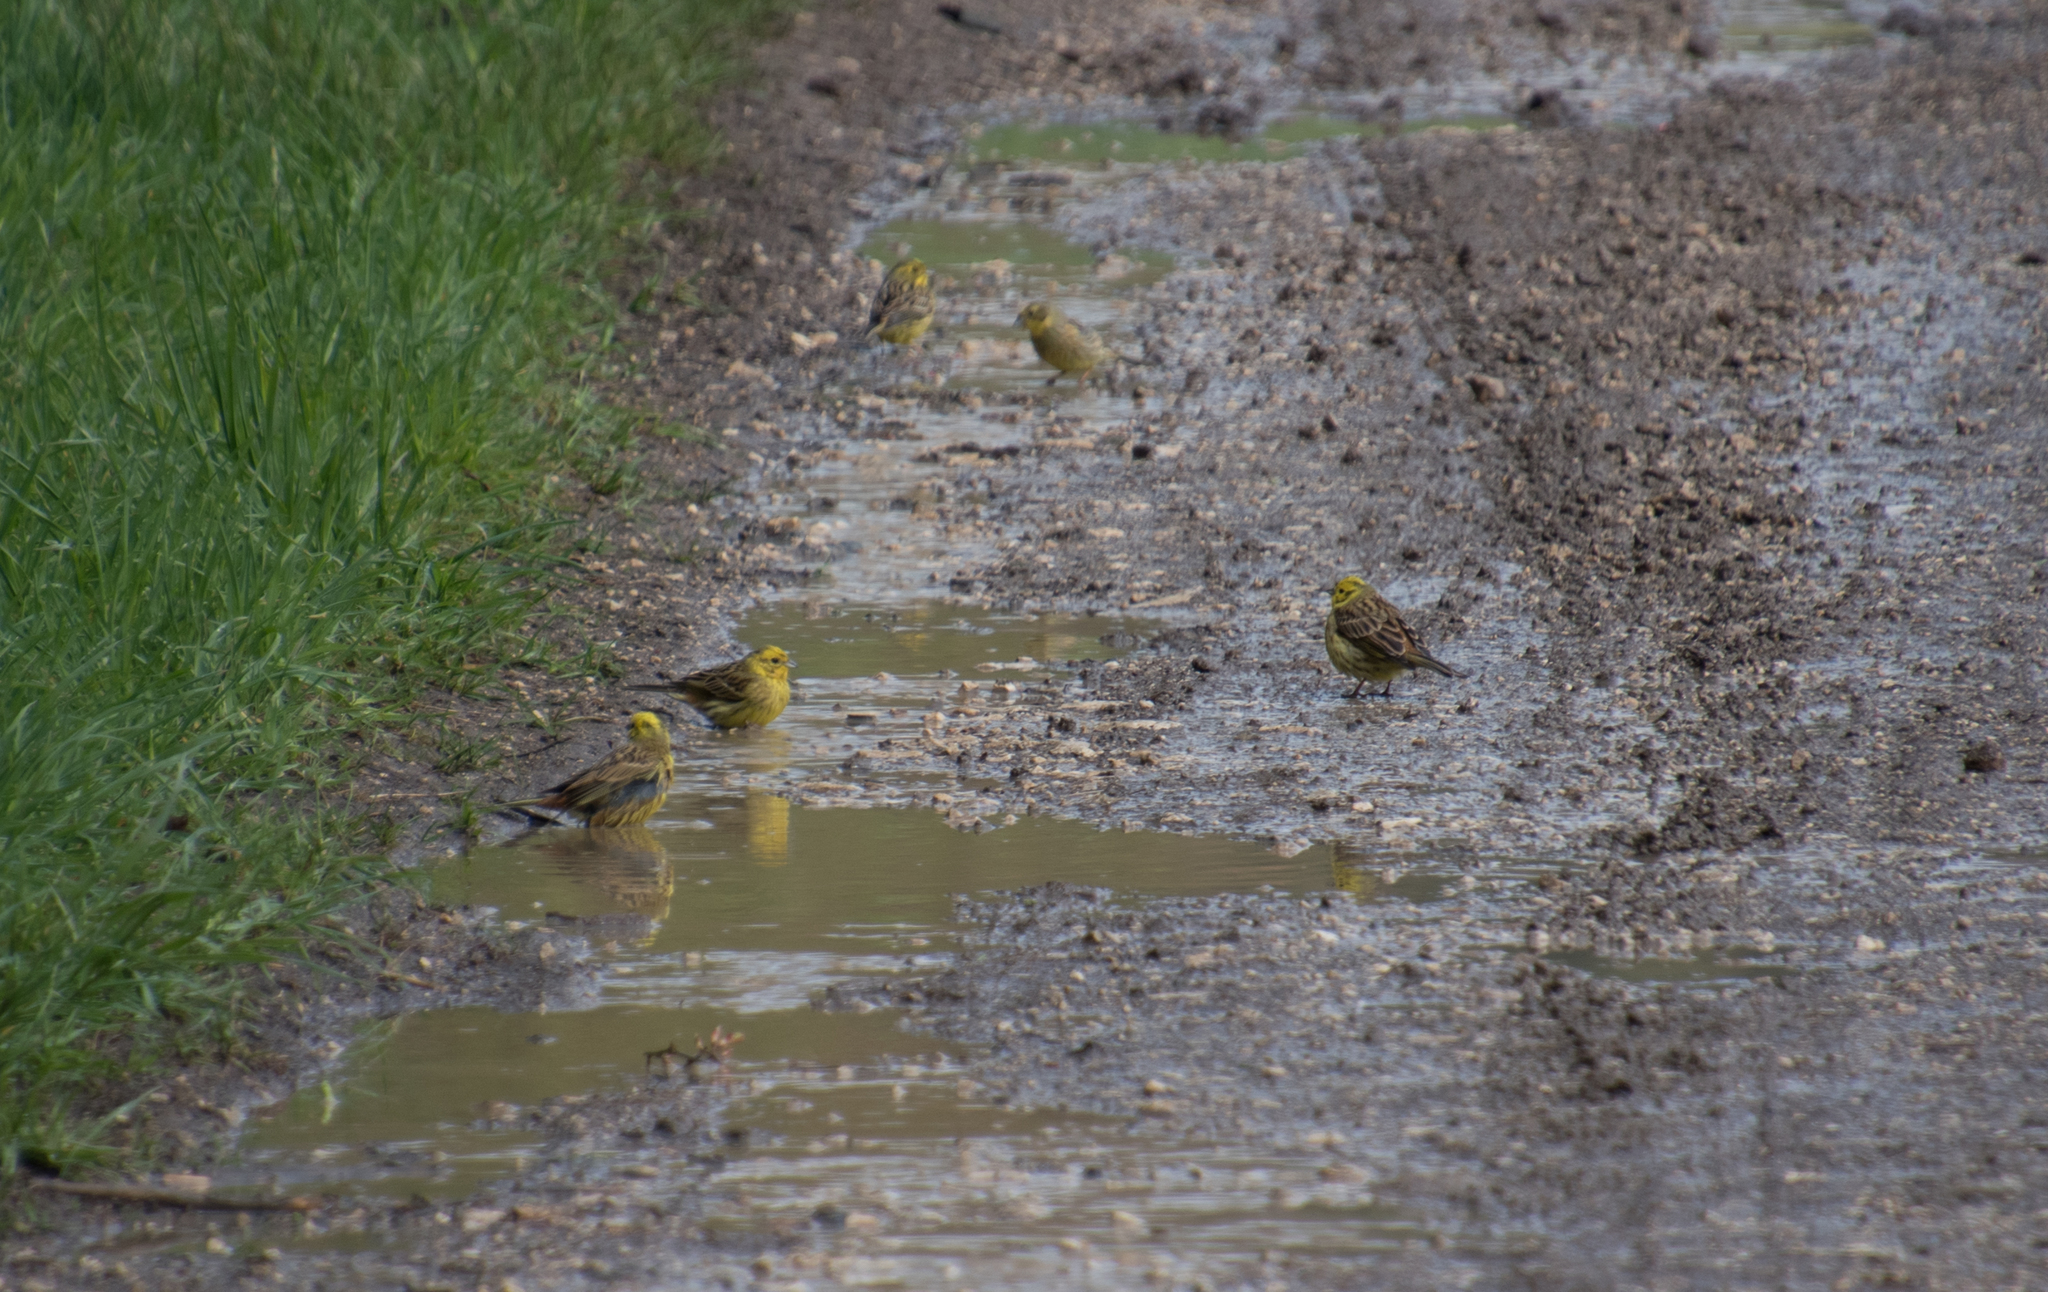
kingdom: Animalia
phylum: Chordata
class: Aves
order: Passeriformes
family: Emberizidae
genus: Emberiza
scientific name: Emberiza citrinella
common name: Yellowhammer
